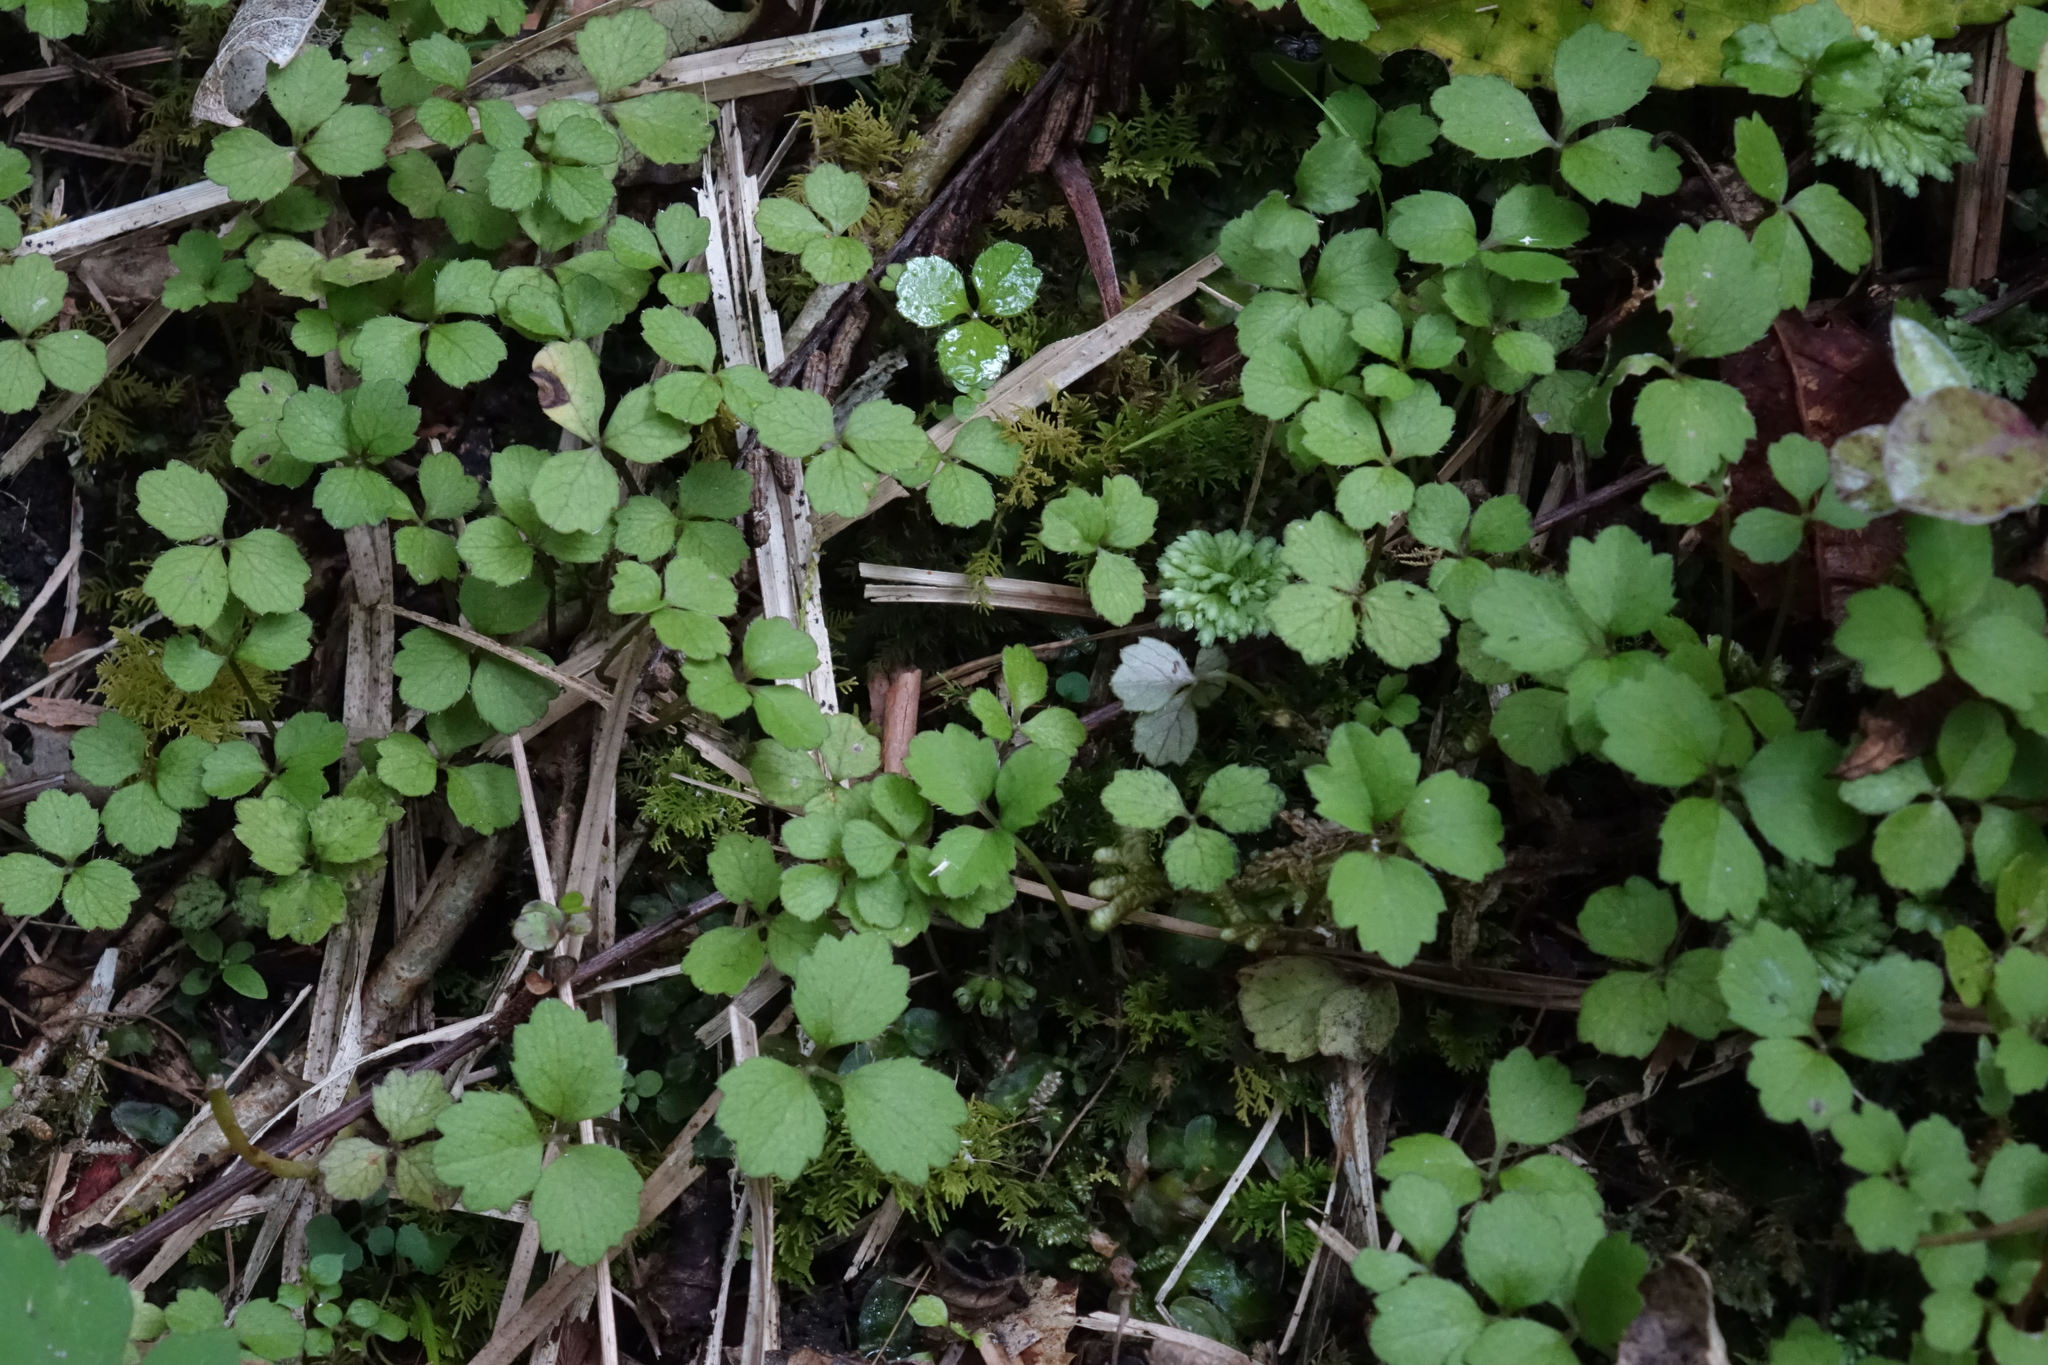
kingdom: Plantae
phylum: Tracheophyta
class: Magnoliopsida
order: Apiales
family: Apiaceae
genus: Azorella
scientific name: Azorella hookeri
